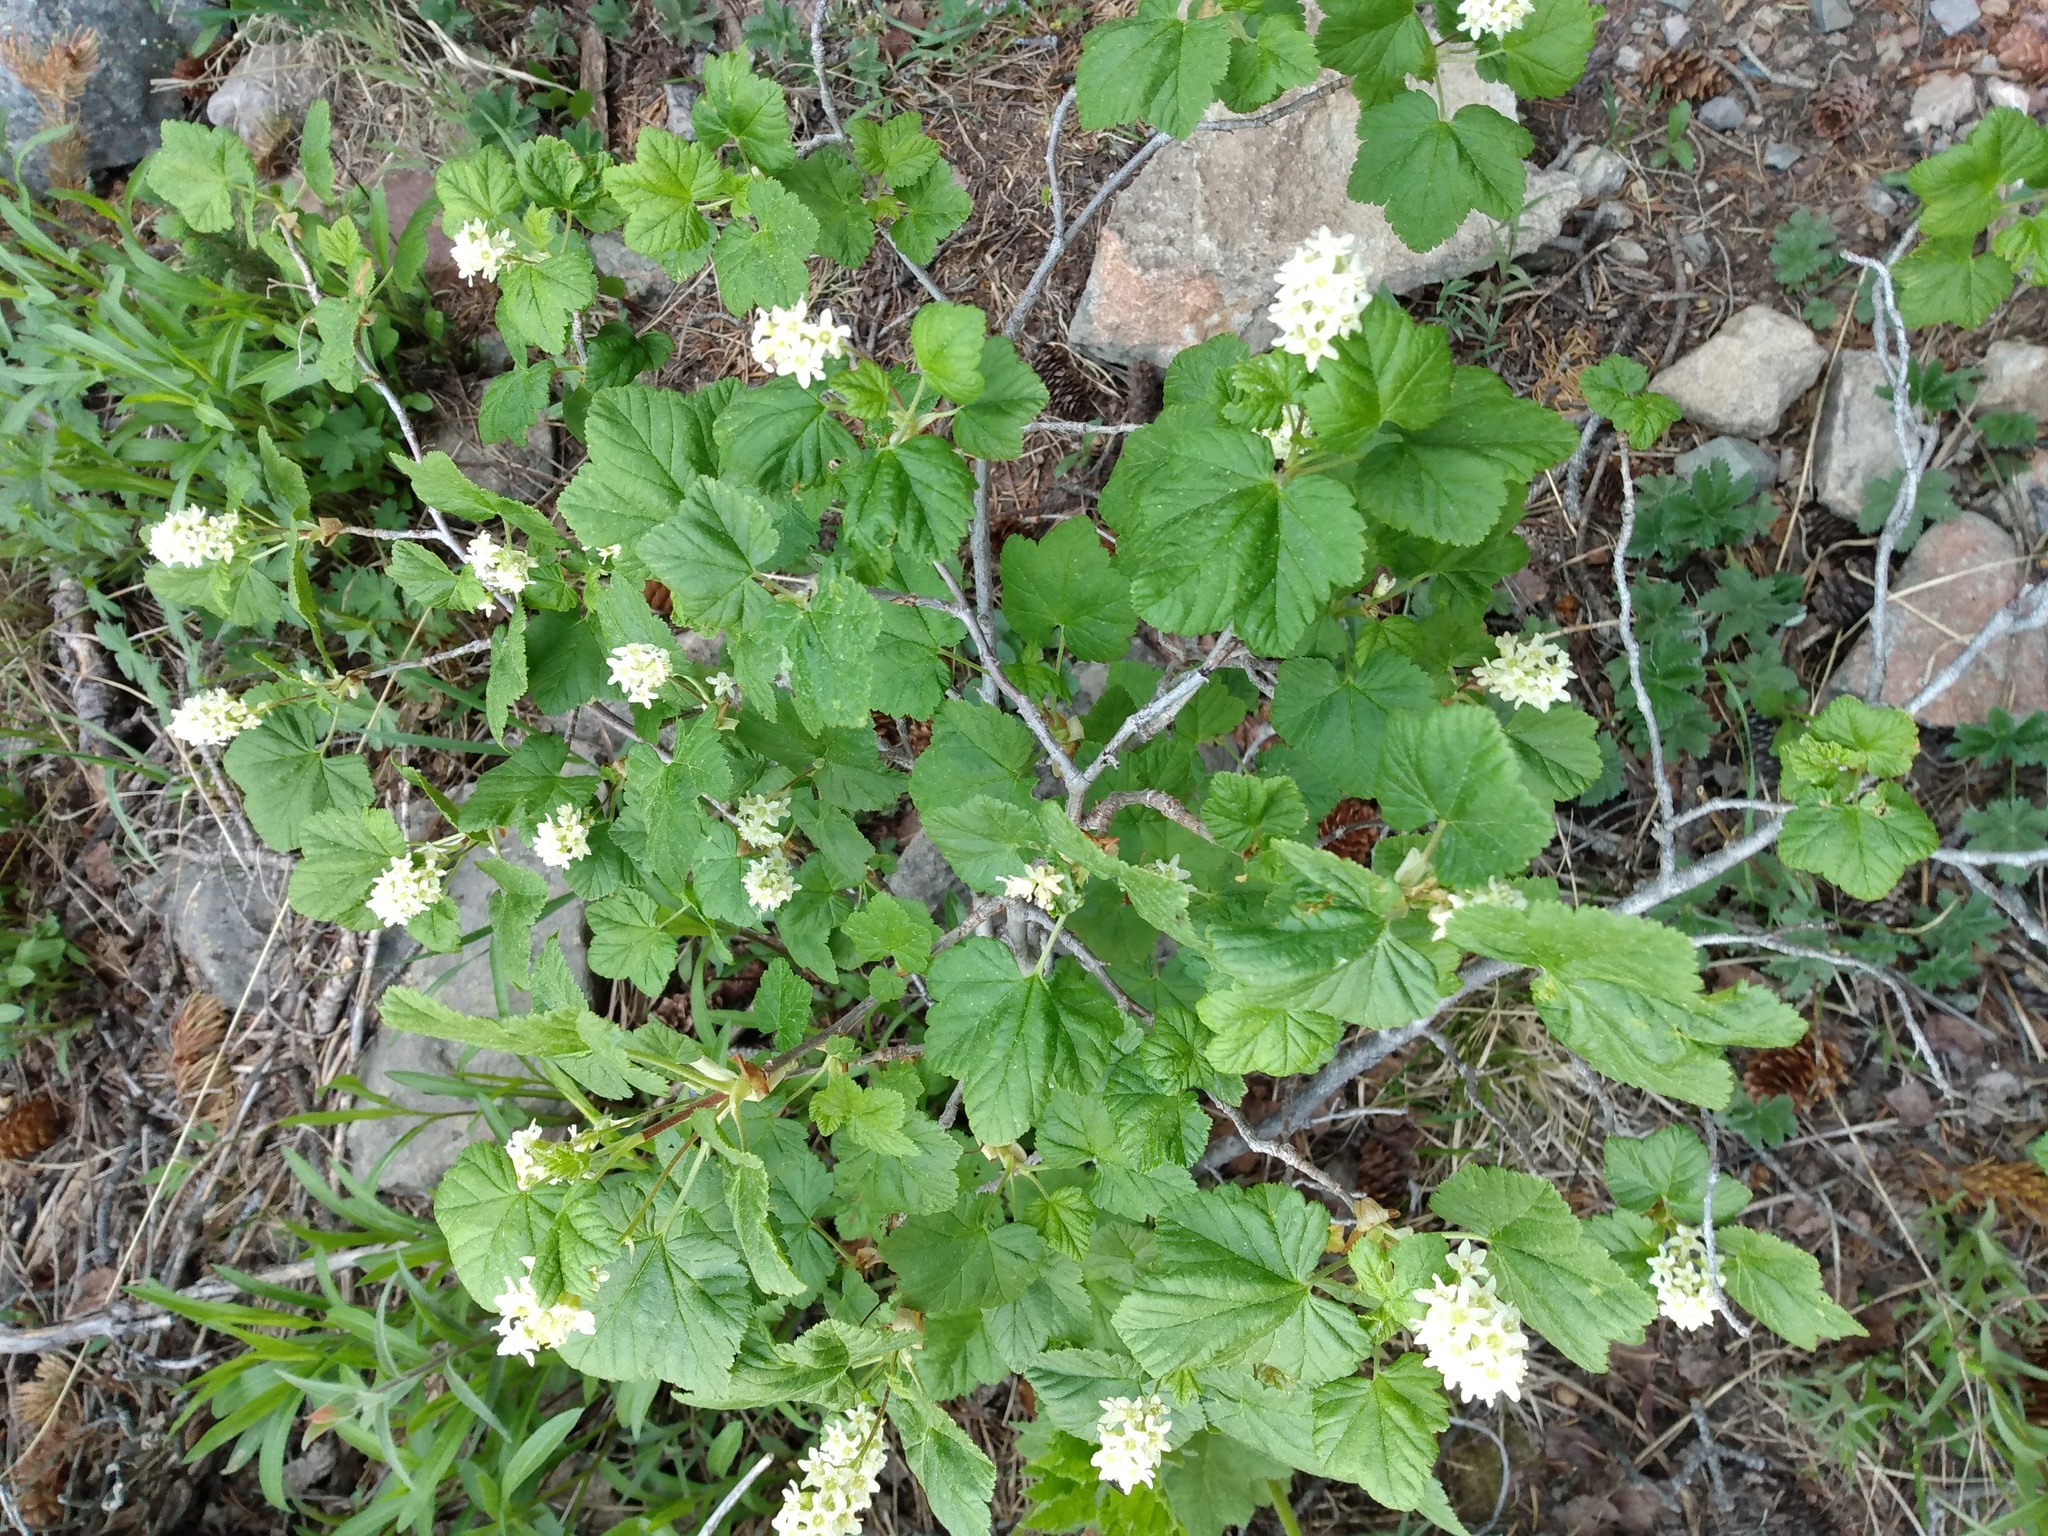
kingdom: Plantae
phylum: Tracheophyta
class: Magnoliopsida
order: Saxifragales
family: Grossulariaceae
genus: Ribes
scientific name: Ribes wolfii
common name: Rothrock currant
